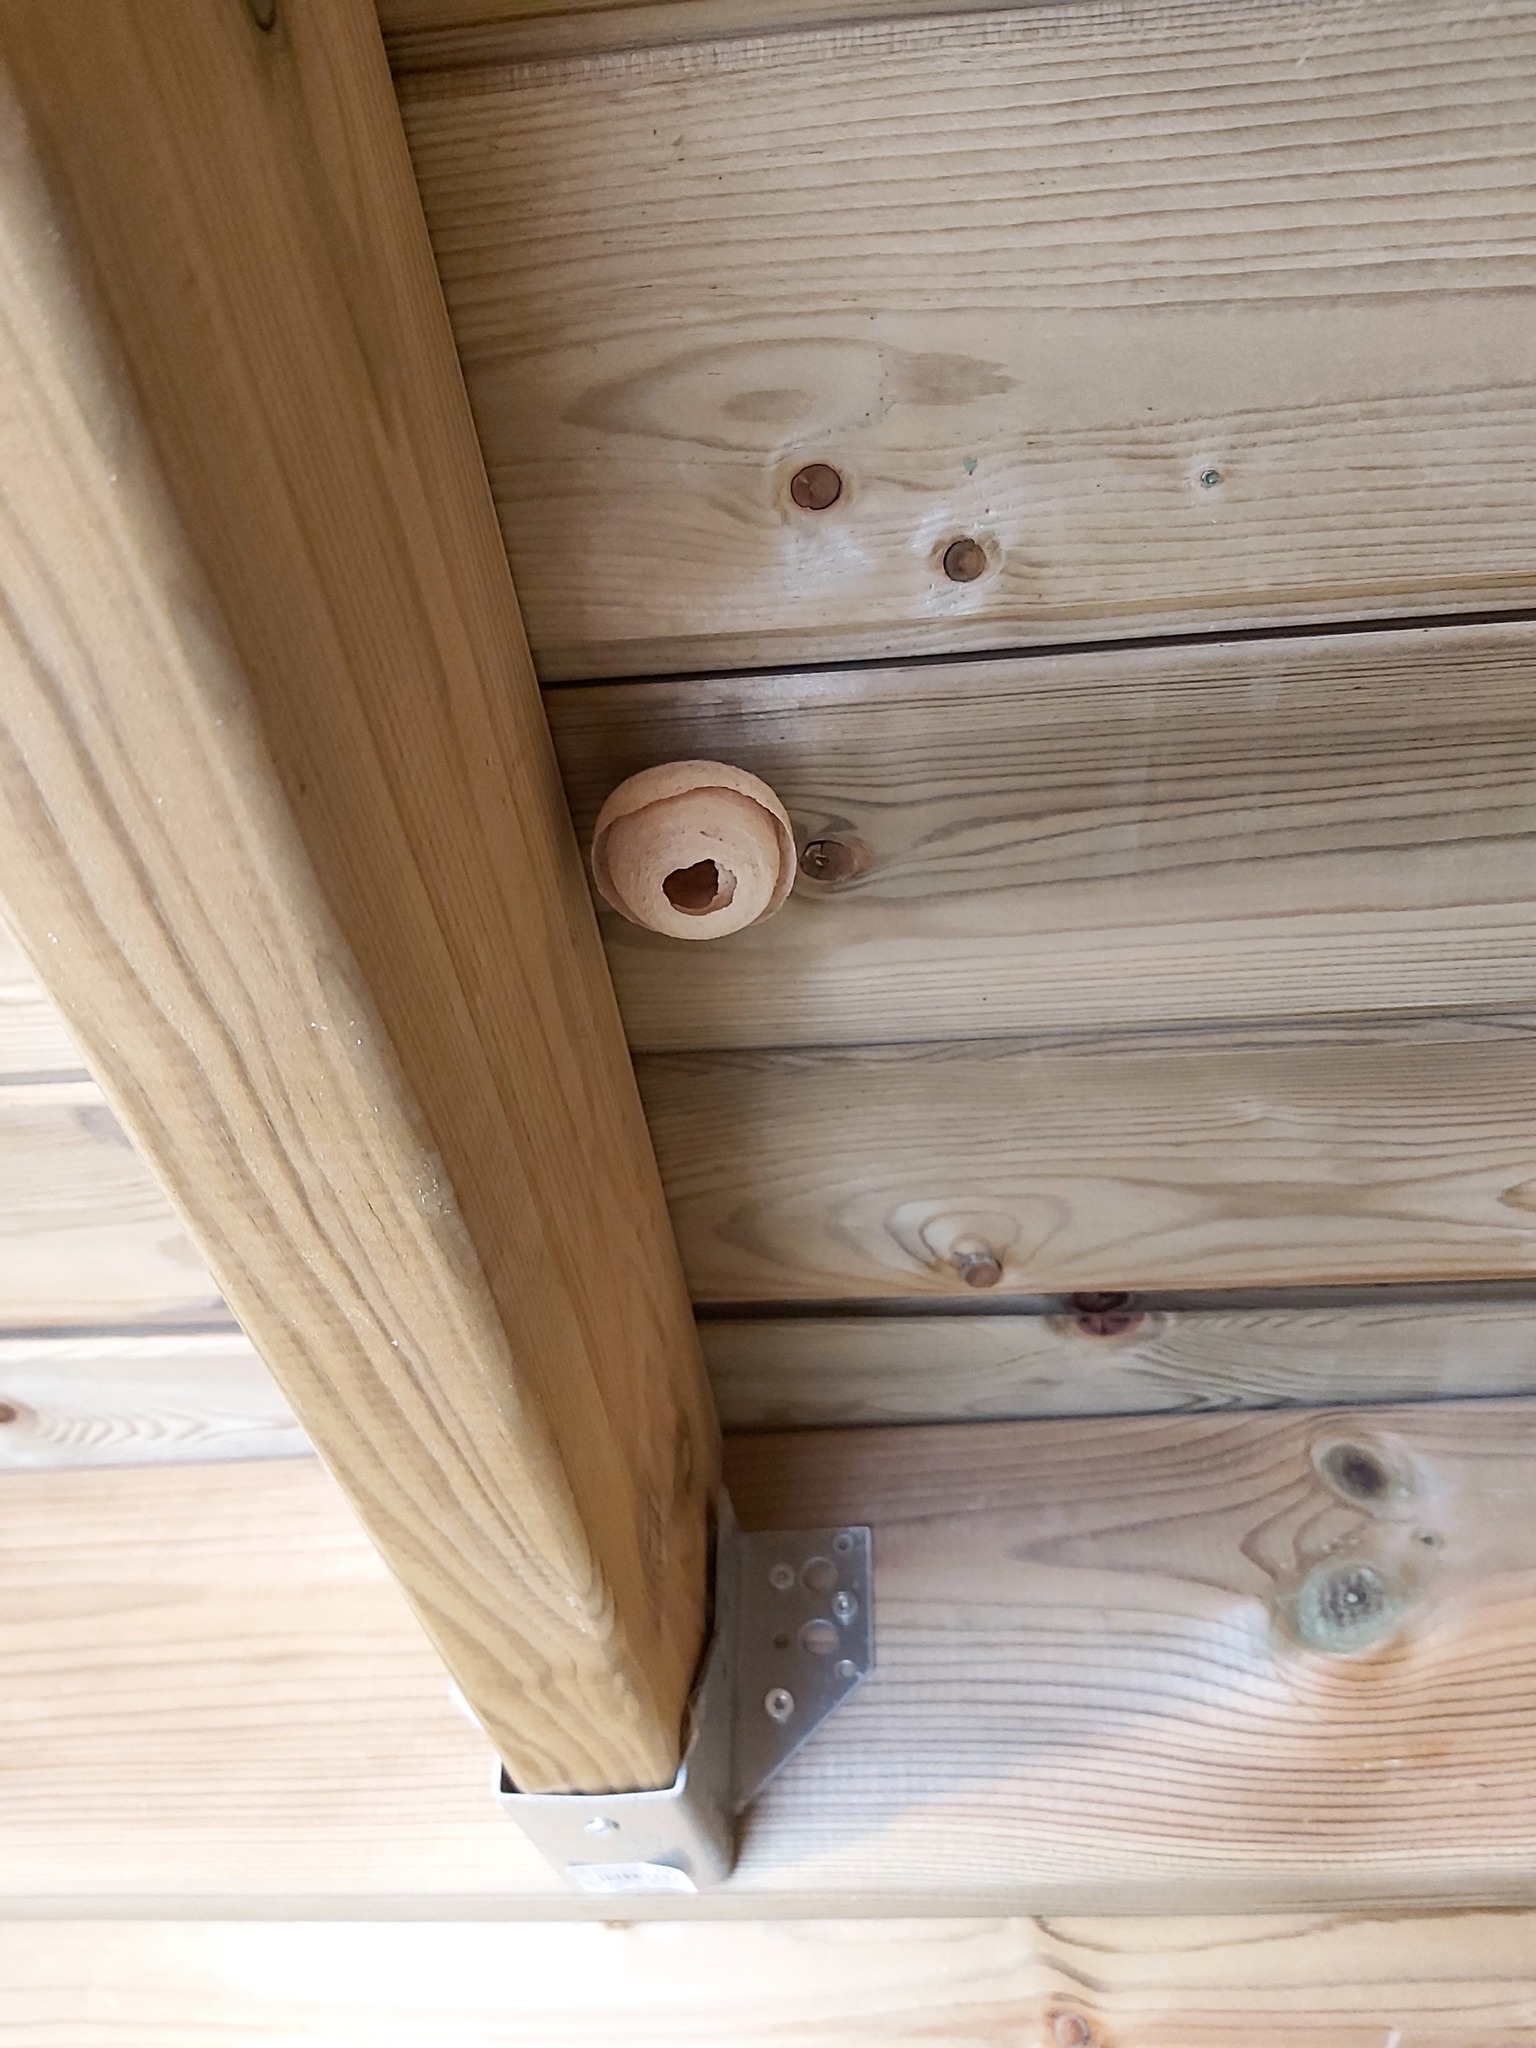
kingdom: Animalia
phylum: Arthropoda
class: Insecta
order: Hymenoptera
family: Vespidae
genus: Vespa
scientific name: Vespa velutina
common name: Asian hornet
